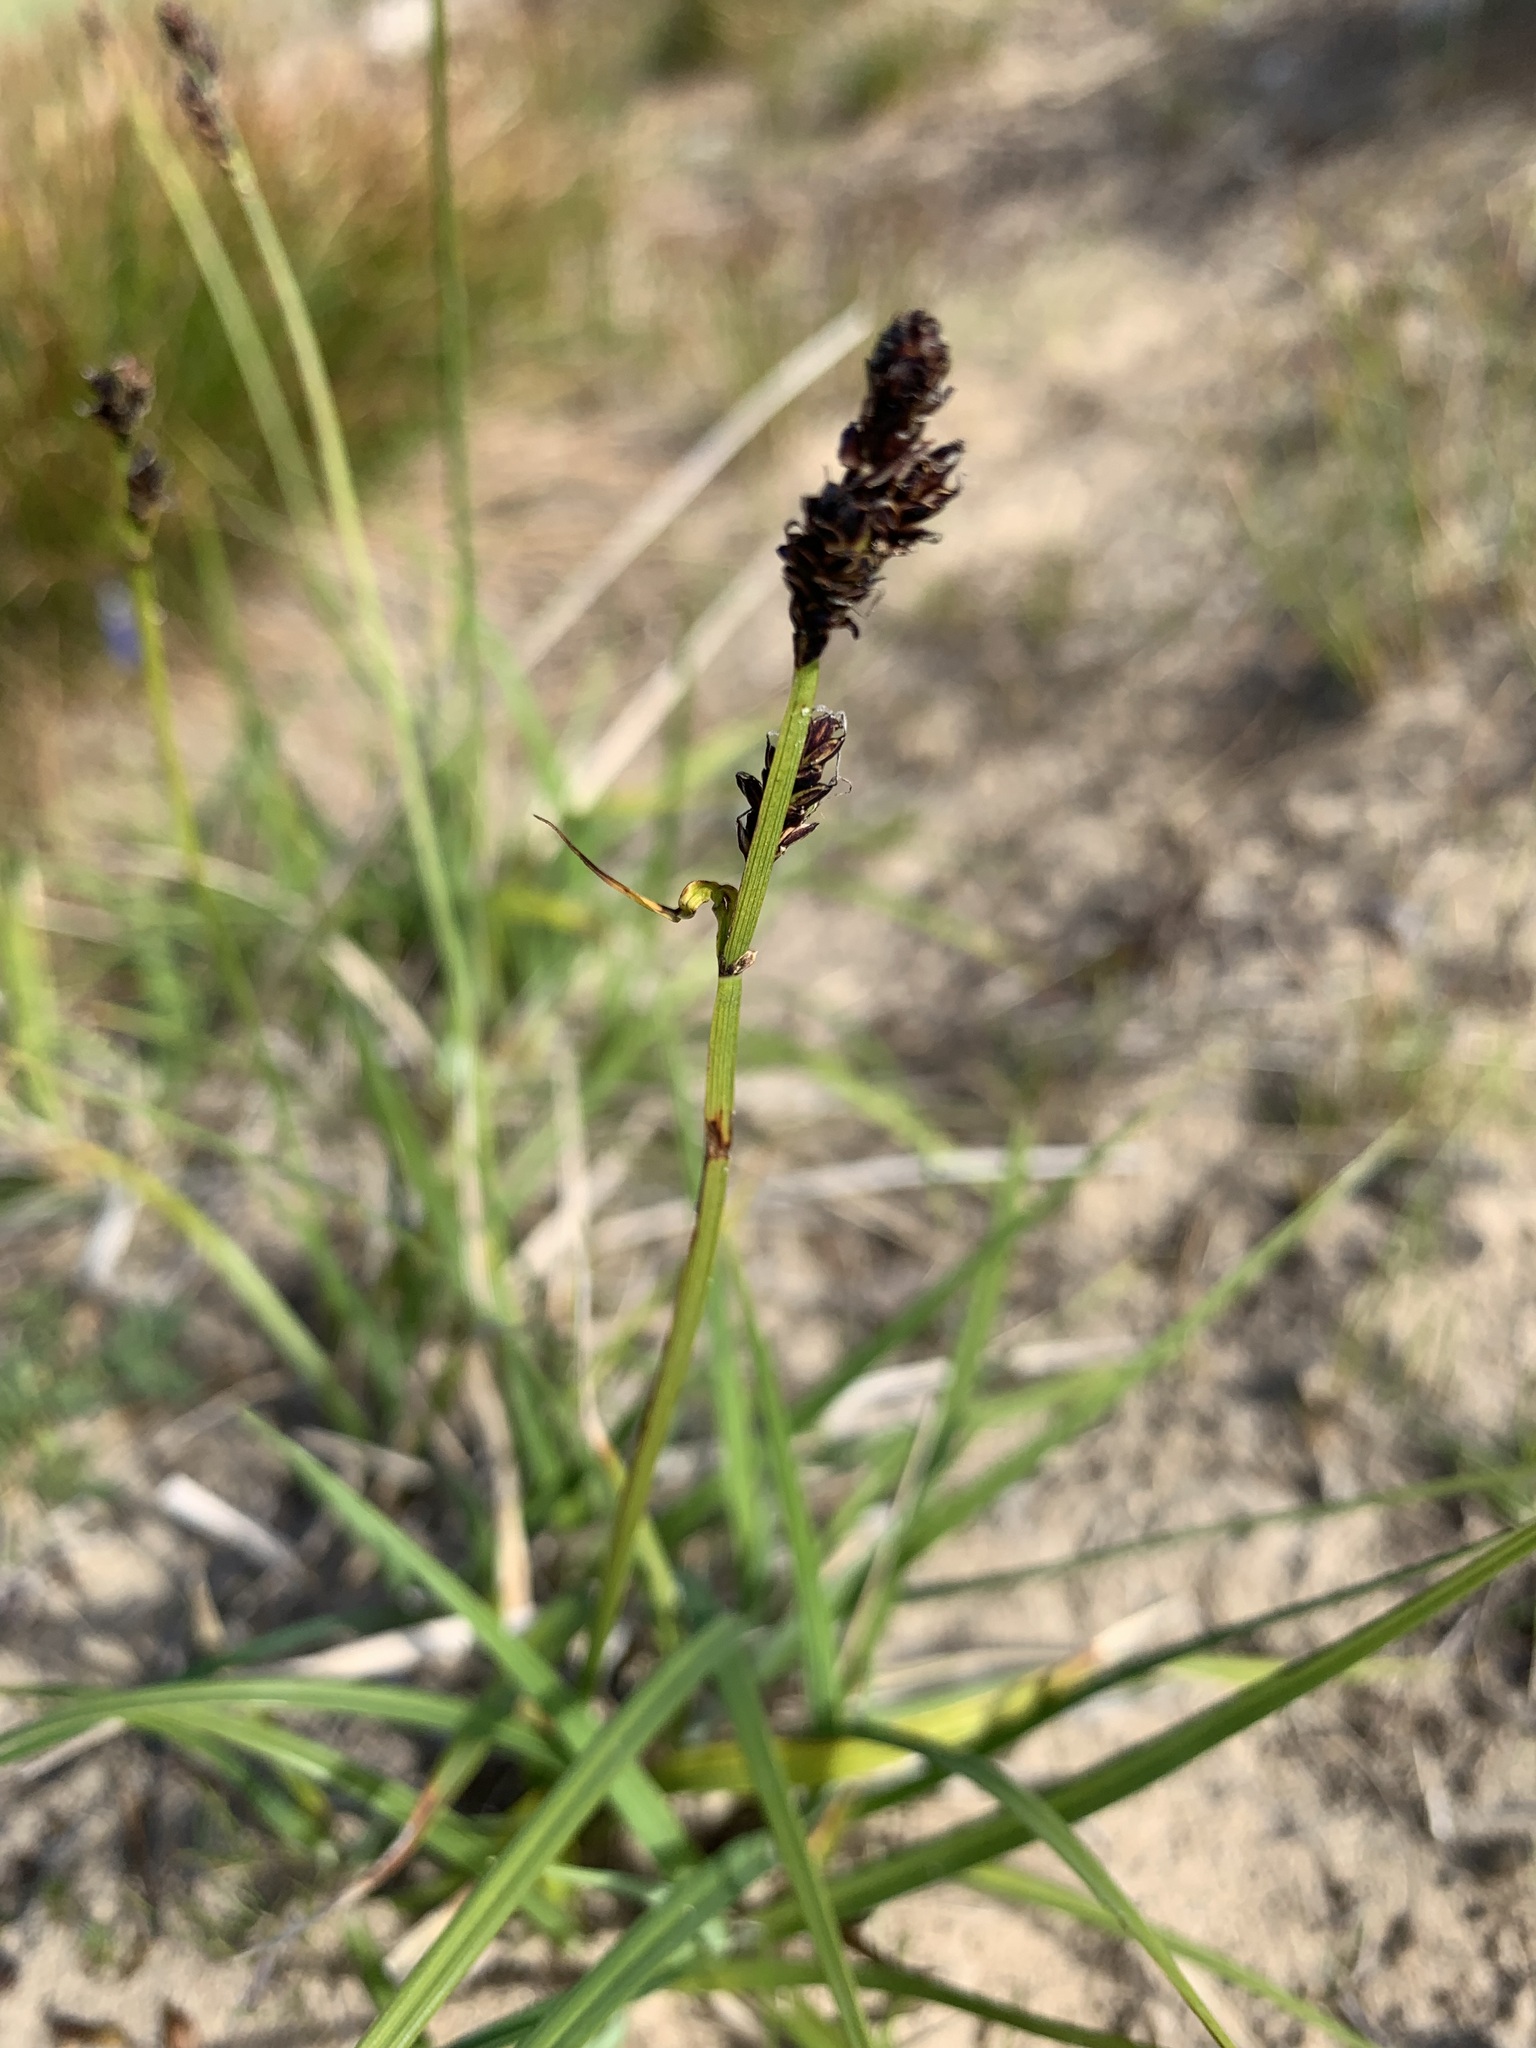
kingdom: Plantae
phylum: Tracheophyta
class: Liliopsida
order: Poales
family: Cyperaceae
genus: Carex
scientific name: Carex bigelowii
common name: Stiff sedge
